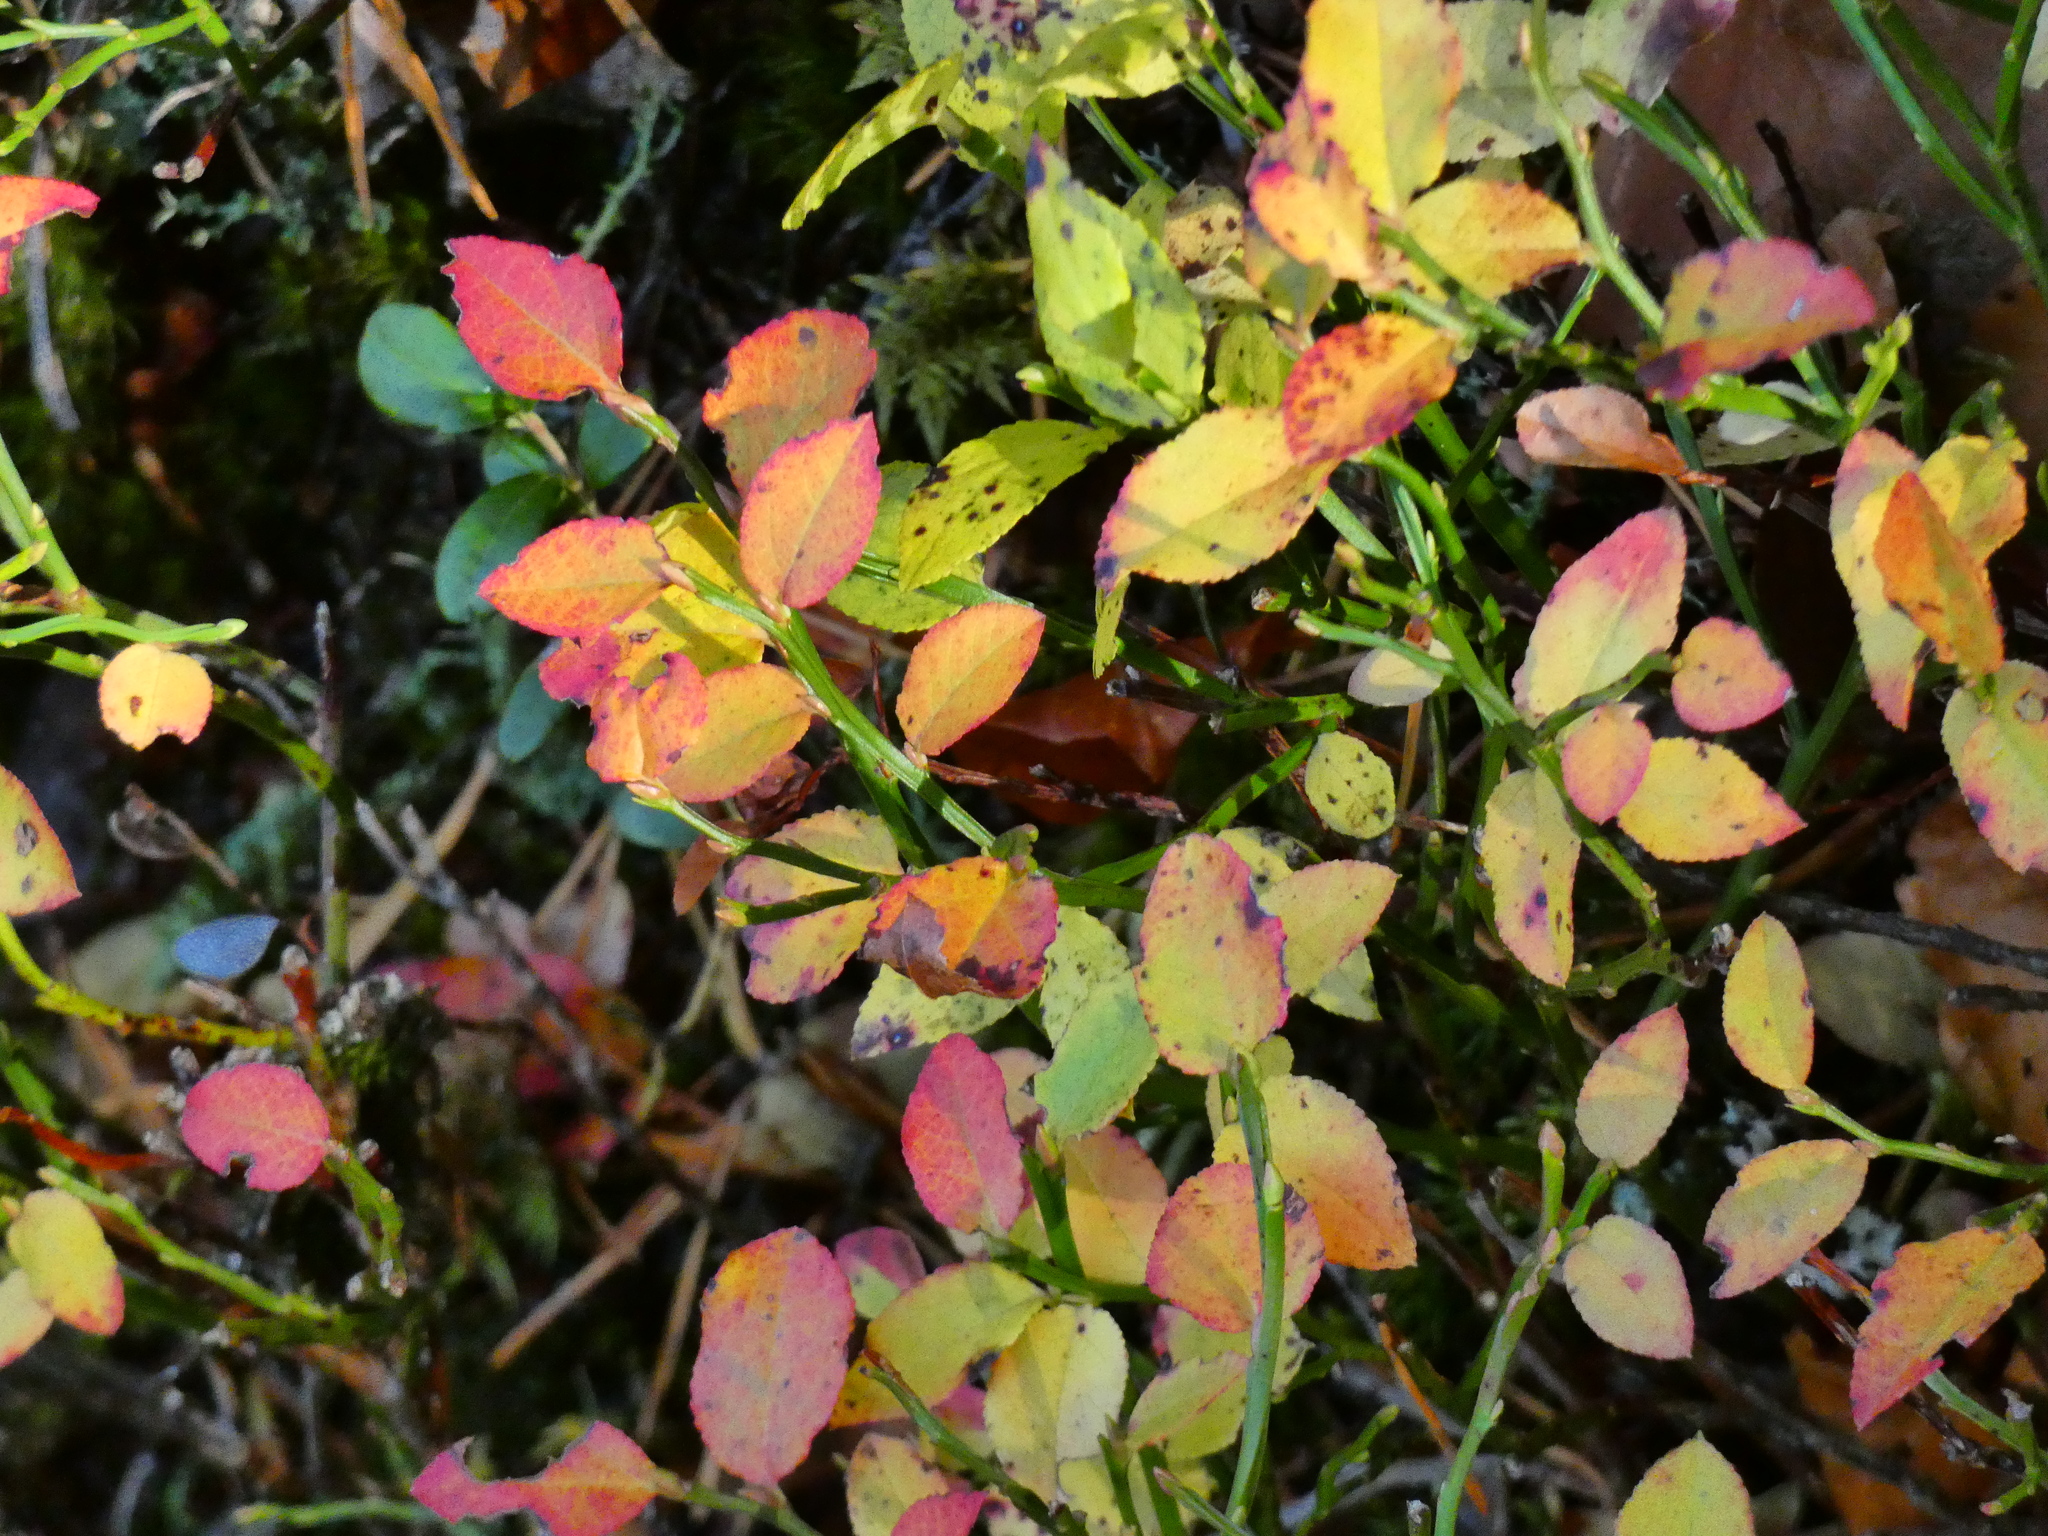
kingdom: Plantae
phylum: Tracheophyta
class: Magnoliopsida
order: Ericales
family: Ericaceae
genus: Vaccinium
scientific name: Vaccinium myrtillus
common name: Bilberry
